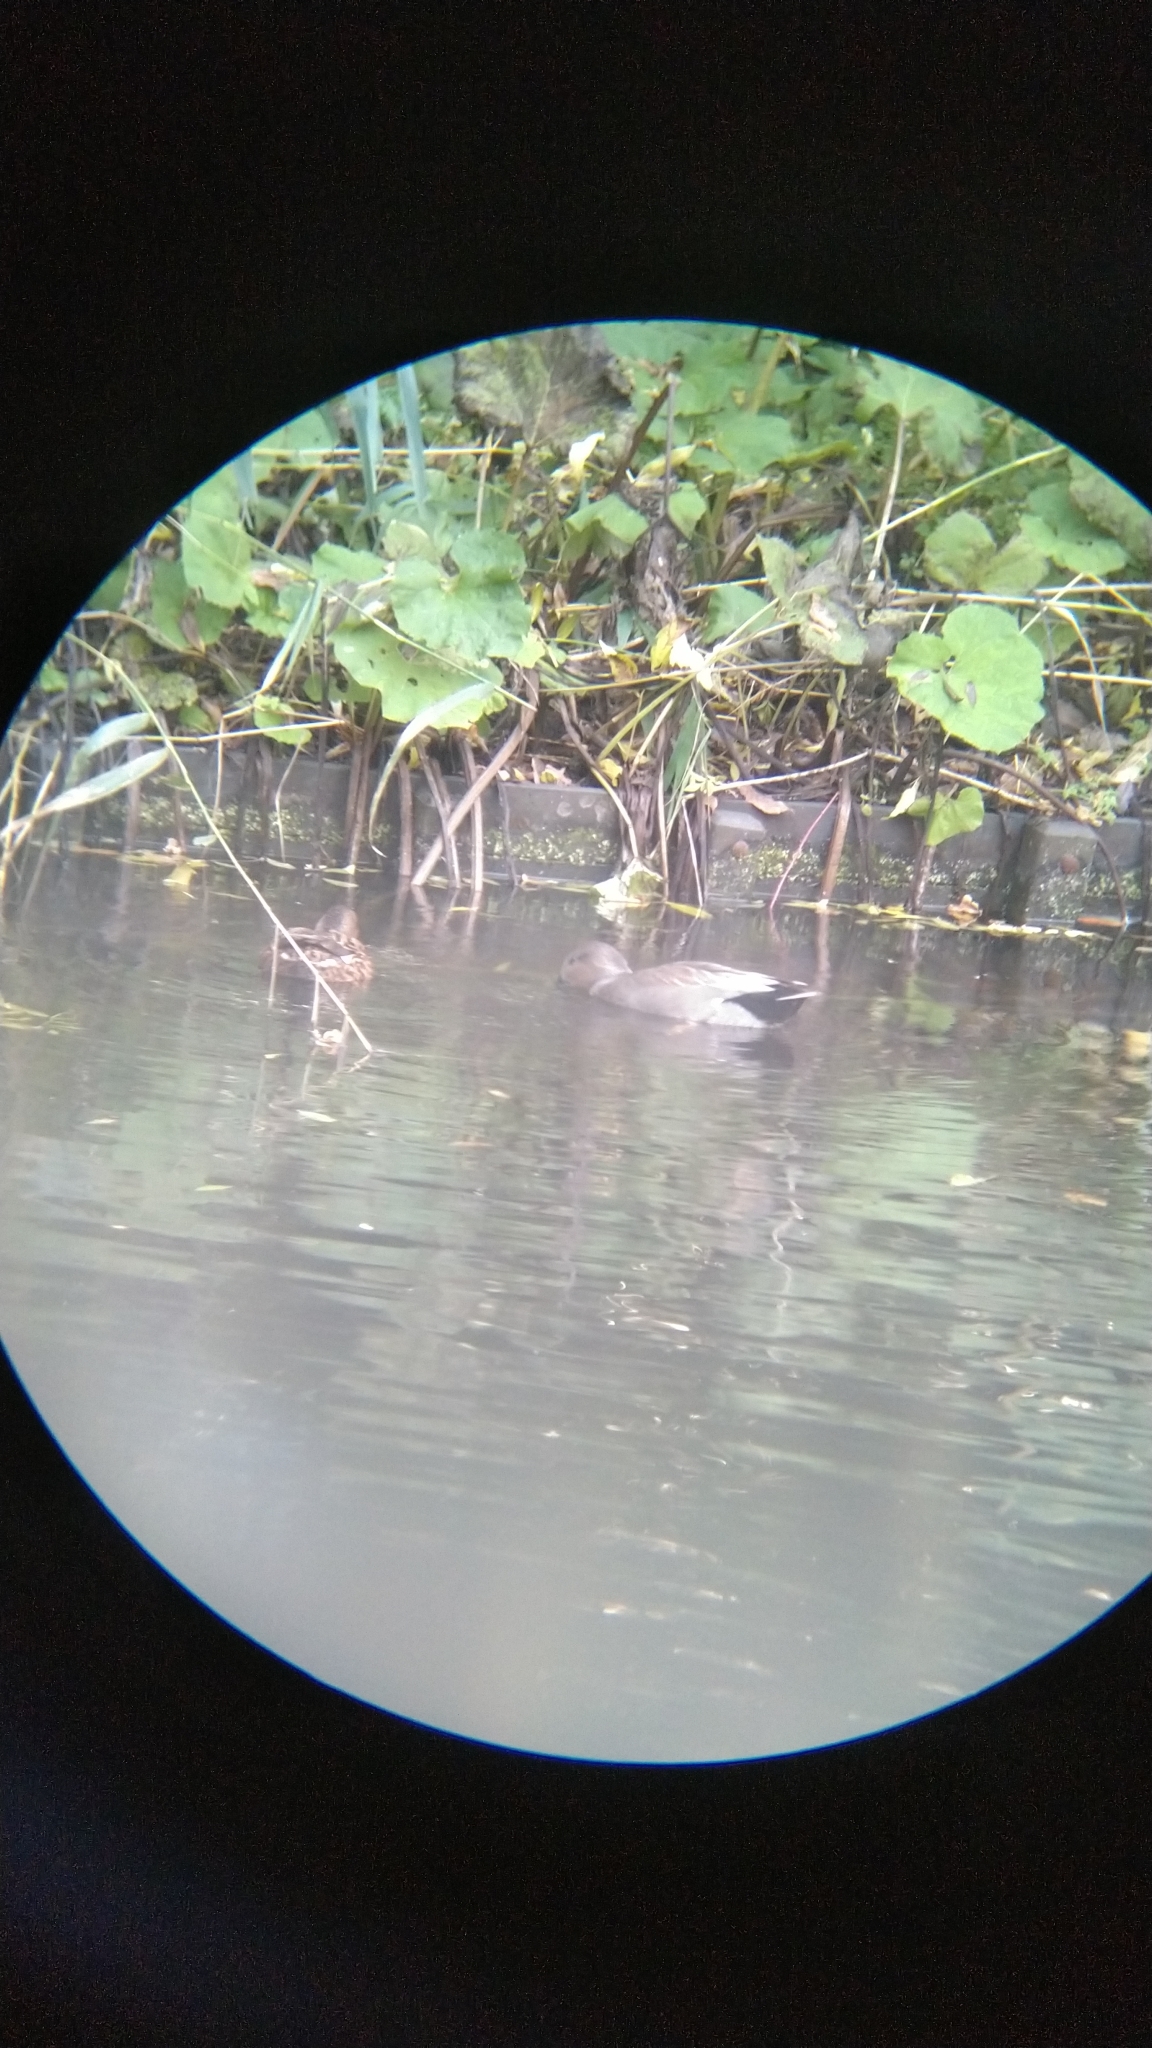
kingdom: Animalia
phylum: Chordata
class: Aves
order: Anseriformes
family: Anatidae
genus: Mareca
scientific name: Mareca strepera
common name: Gadwall
